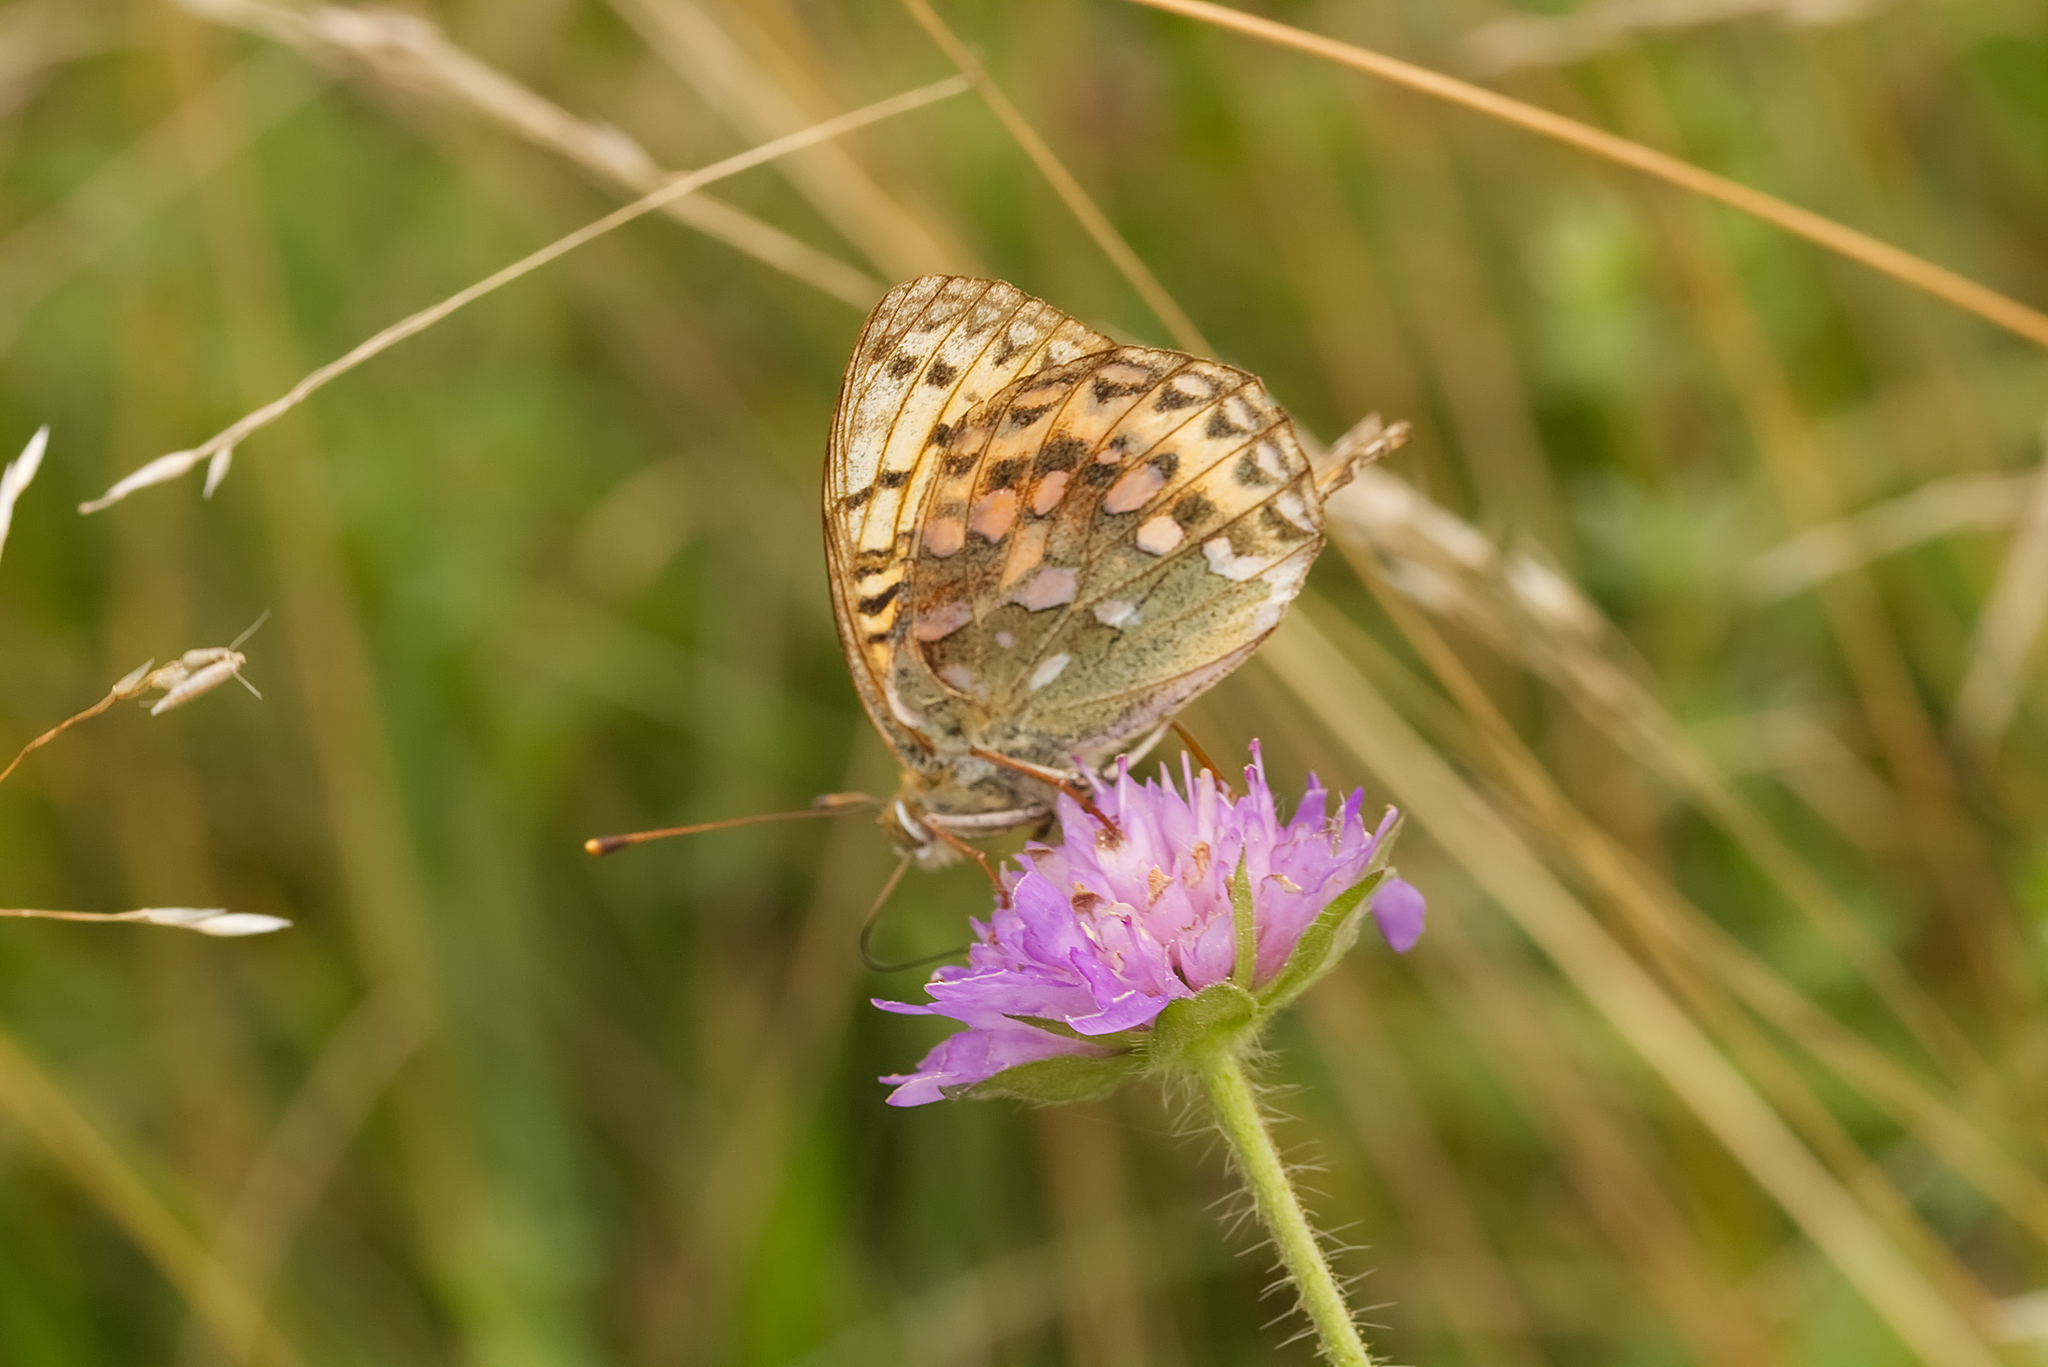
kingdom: Animalia
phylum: Arthropoda
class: Insecta
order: Lepidoptera
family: Nymphalidae
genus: Speyeria
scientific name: Speyeria aglaja
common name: Dark green fritillary
